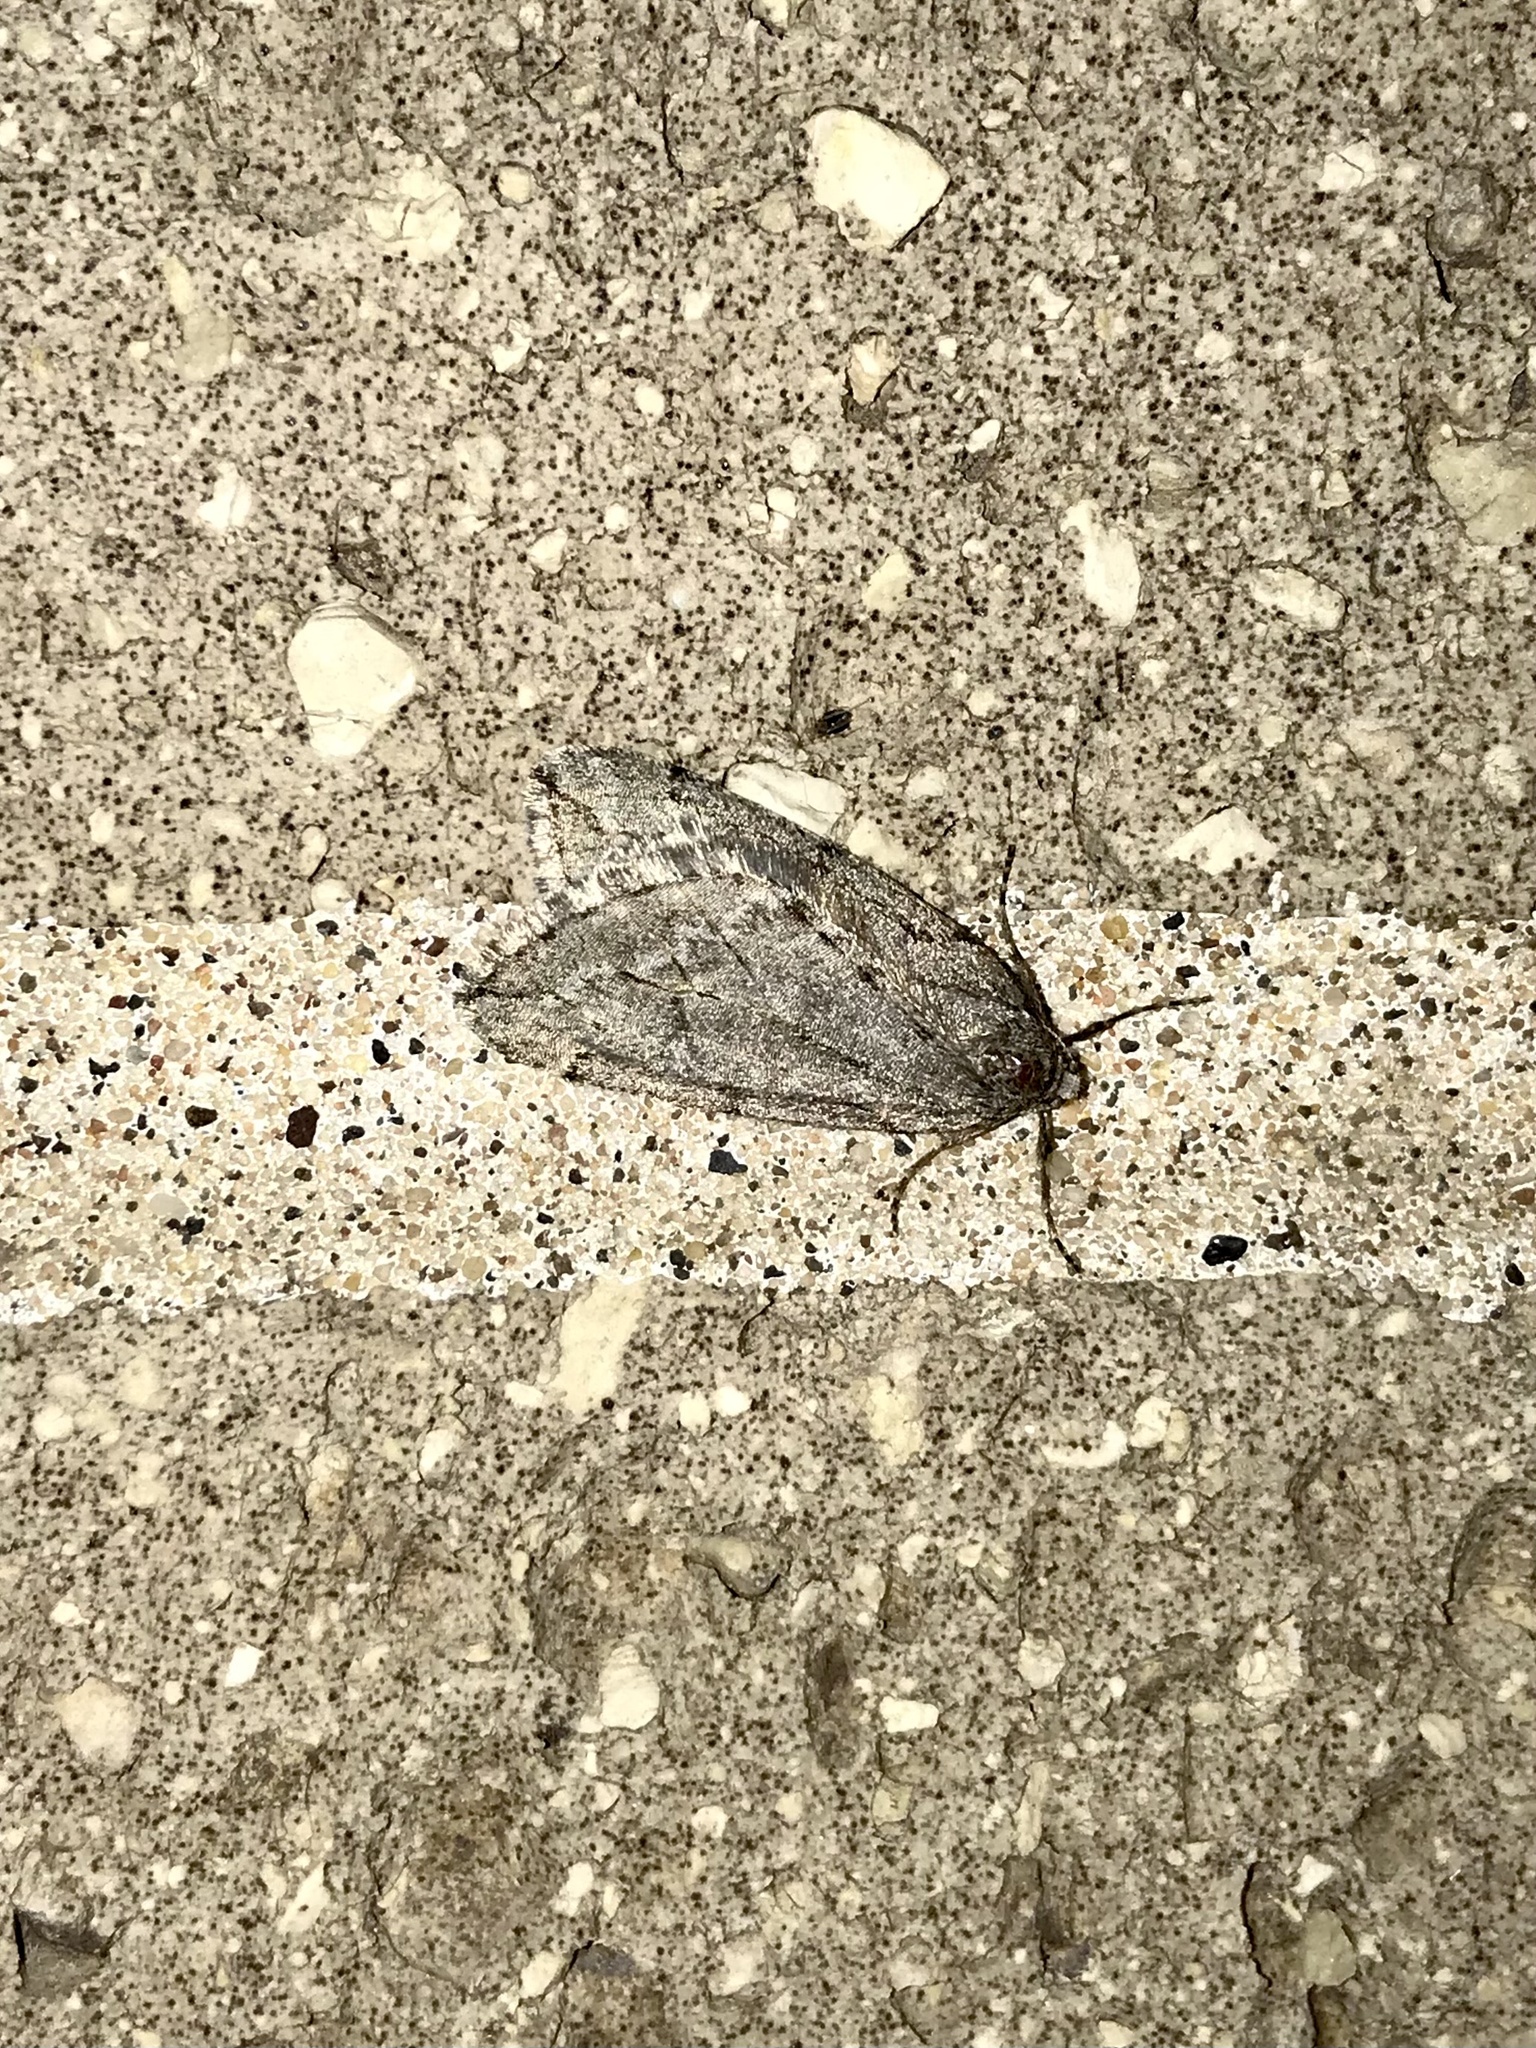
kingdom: Animalia
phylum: Arthropoda
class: Insecta
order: Lepidoptera
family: Geometridae
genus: Paleacrita
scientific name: Paleacrita vernata
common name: Spring cankerworm
